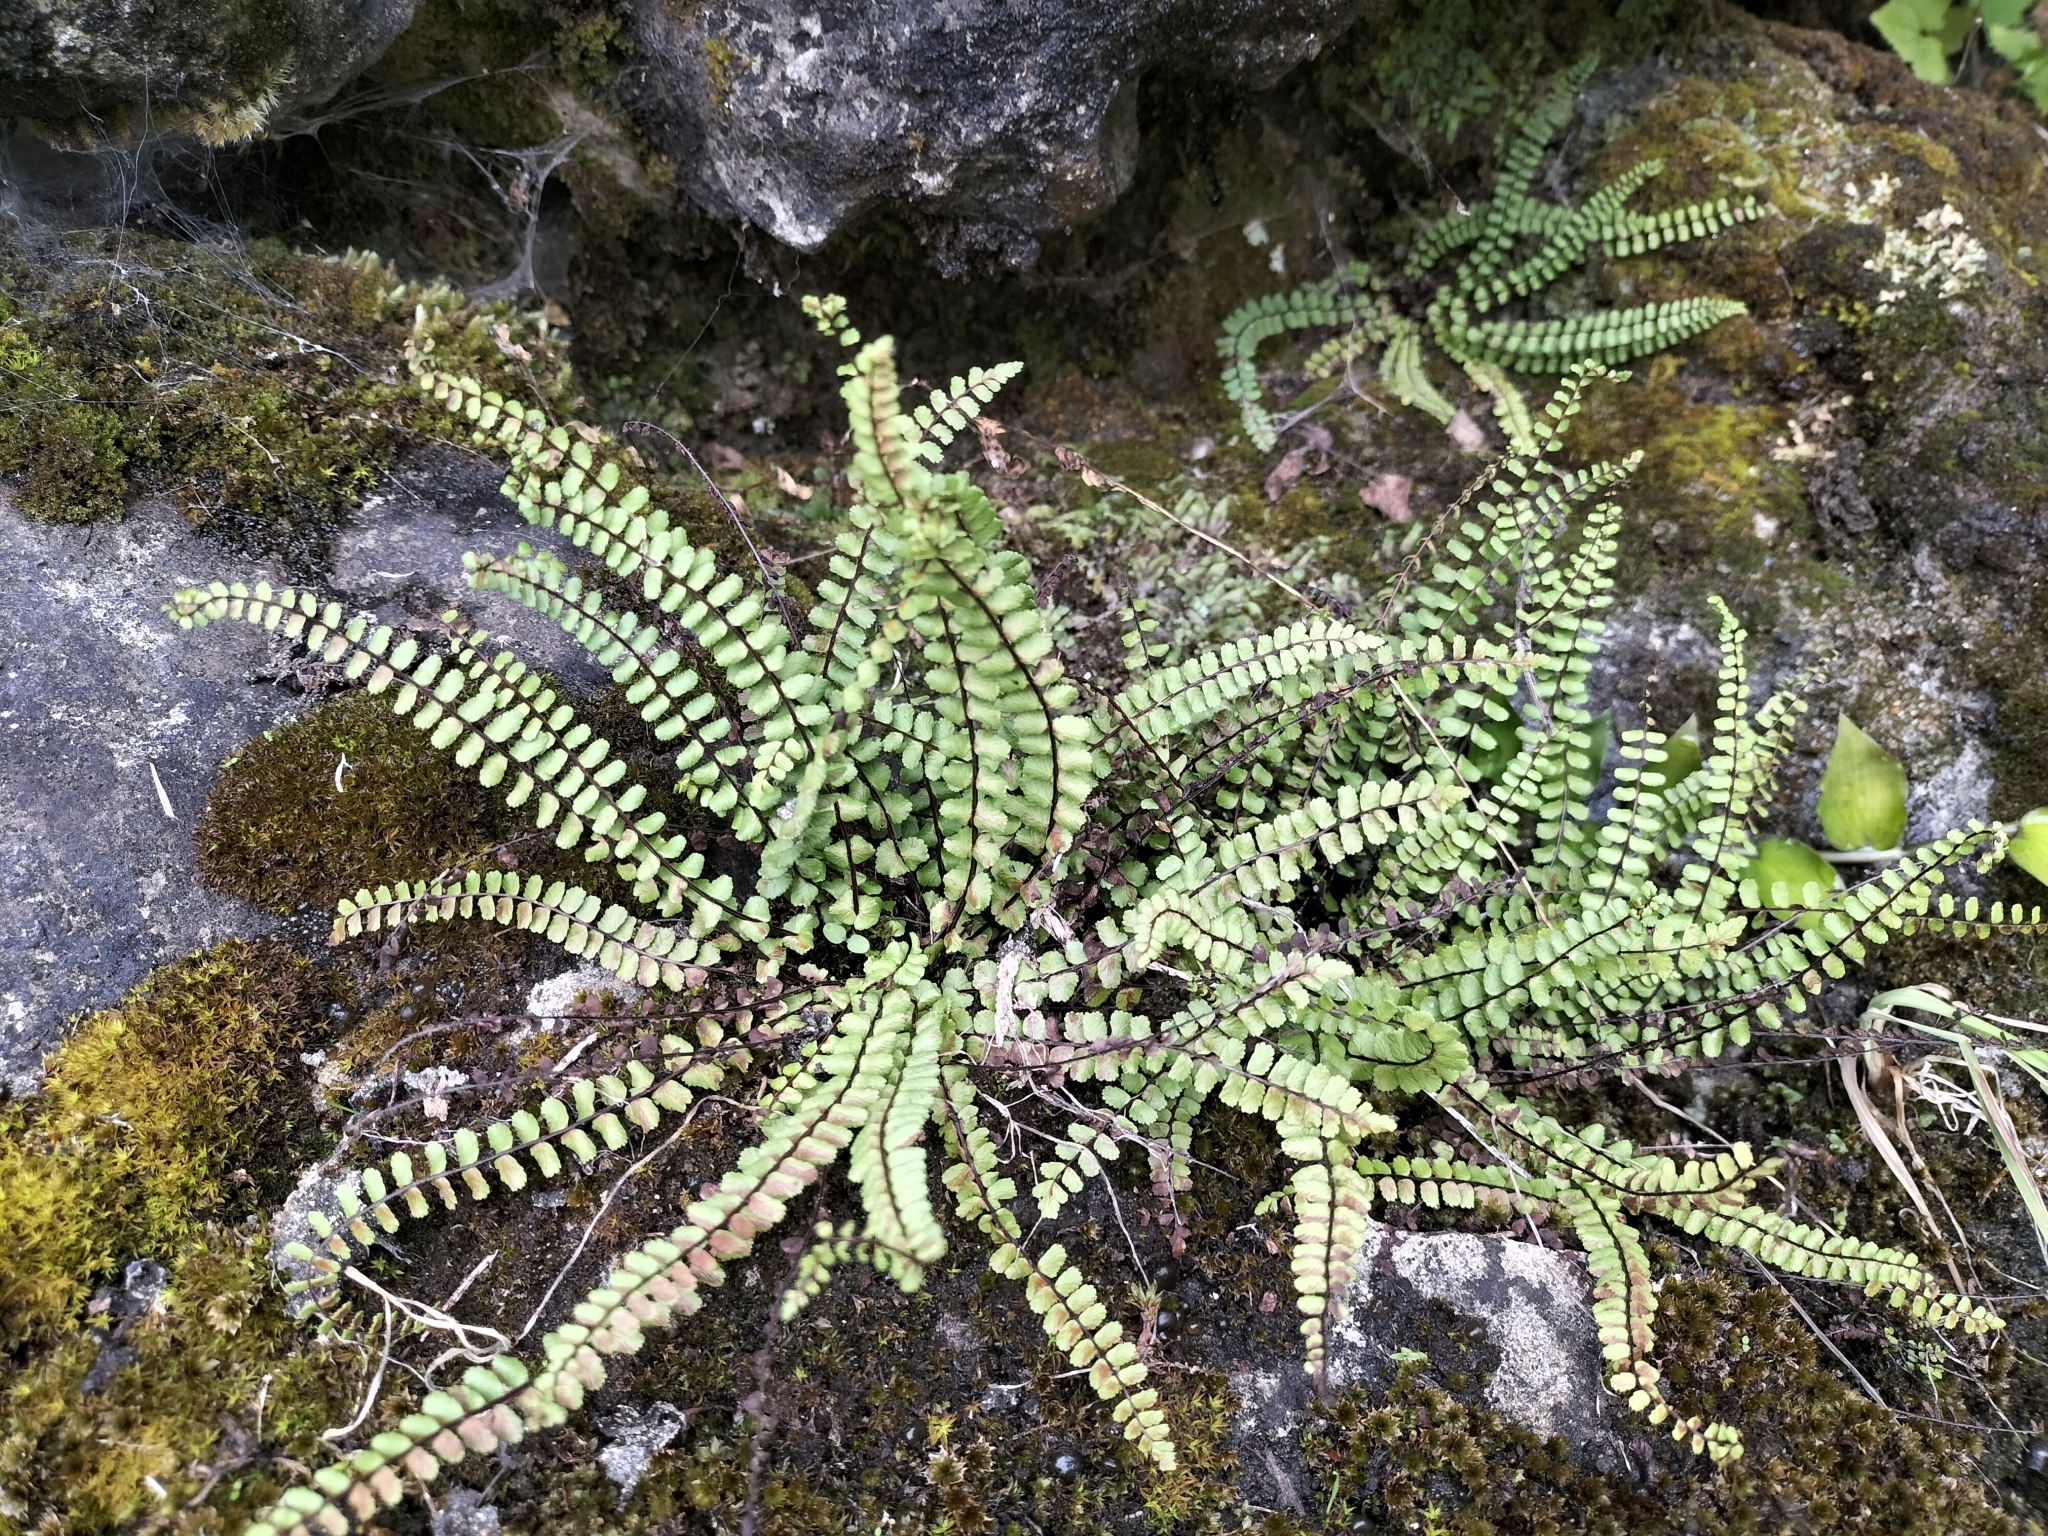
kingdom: Plantae
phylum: Tracheophyta
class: Polypodiopsida
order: Polypodiales
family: Aspleniaceae
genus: Asplenium
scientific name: Asplenium trichomanes
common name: Maidenhair spleenwort
